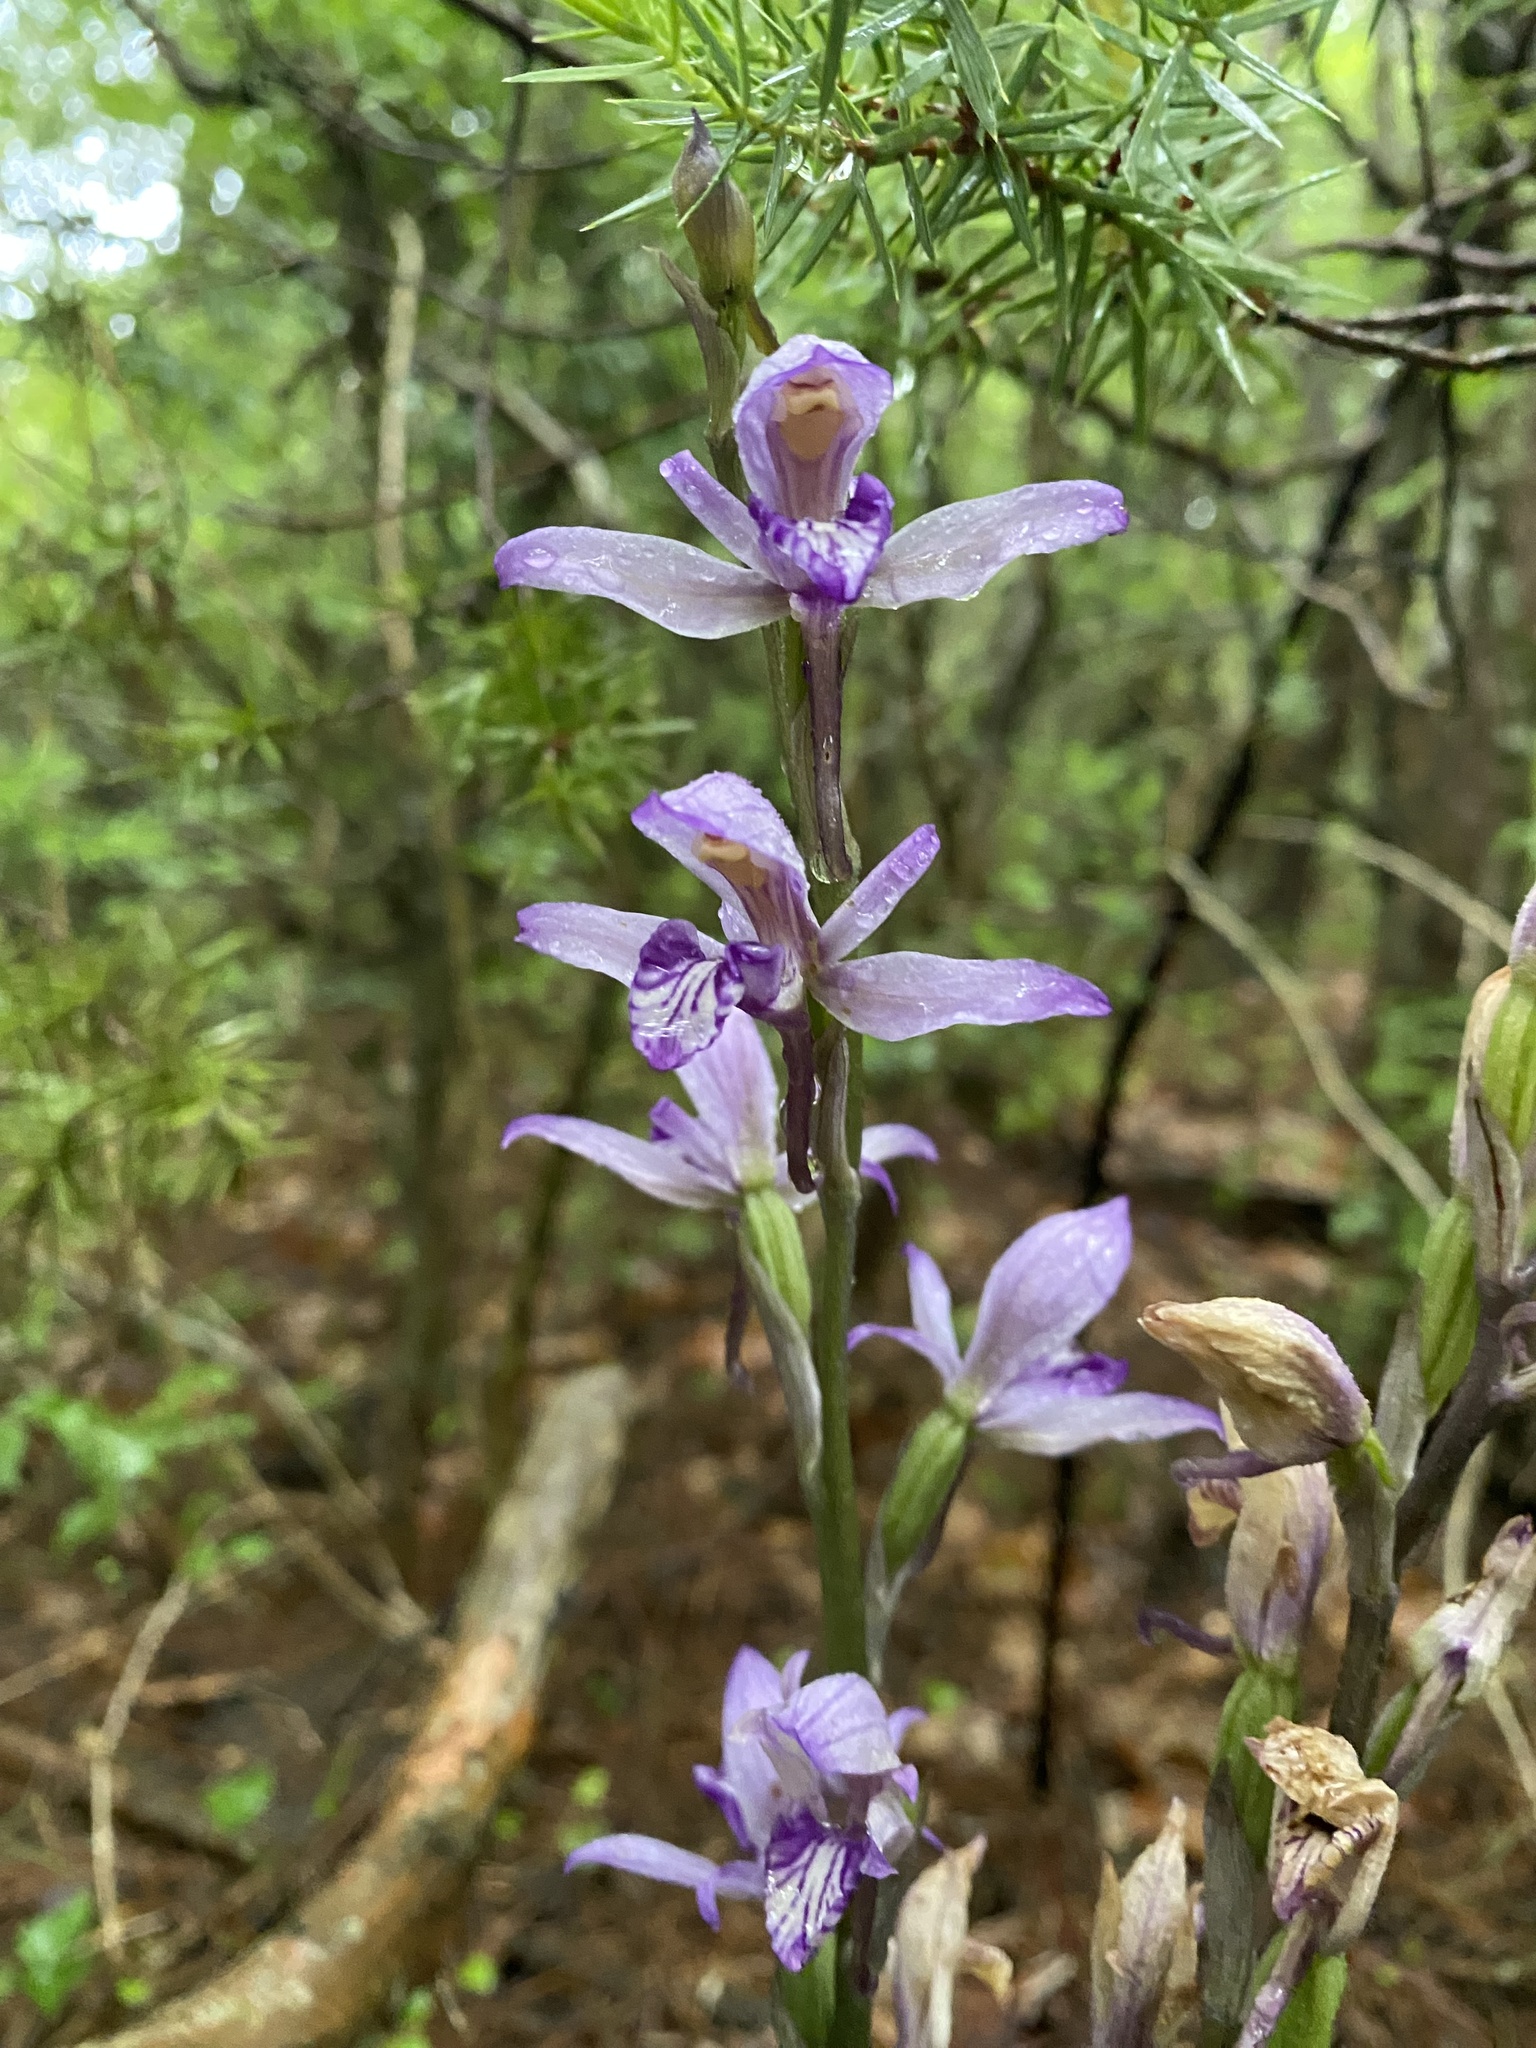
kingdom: Plantae
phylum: Tracheophyta
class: Liliopsida
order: Asparagales
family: Orchidaceae
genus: Limodorum
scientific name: Limodorum abortivum
